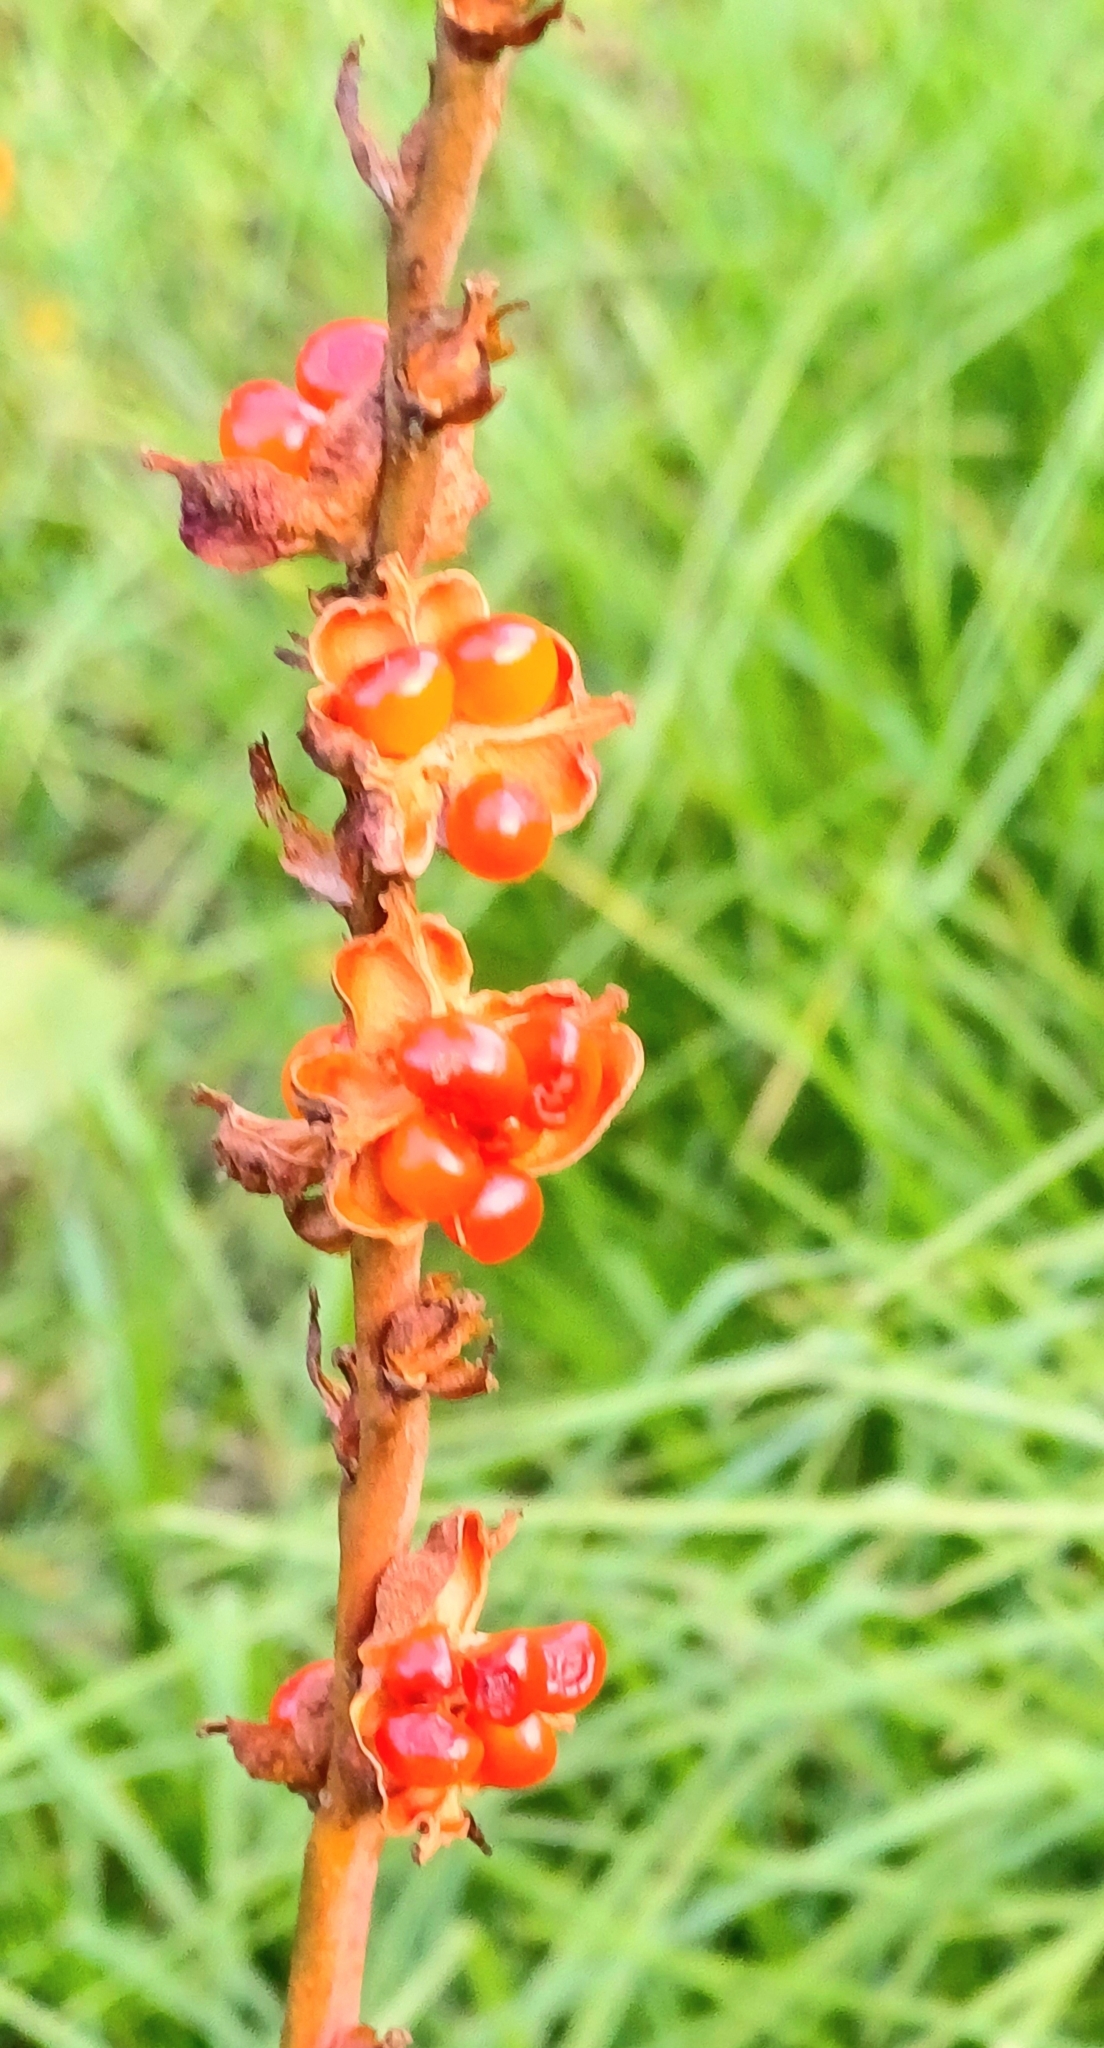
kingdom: Plantae
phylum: Tracheophyta
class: Liliopsida
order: Asparagales
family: Iridaceae
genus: Chasmanthe
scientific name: Chasmanthe aethiopica
